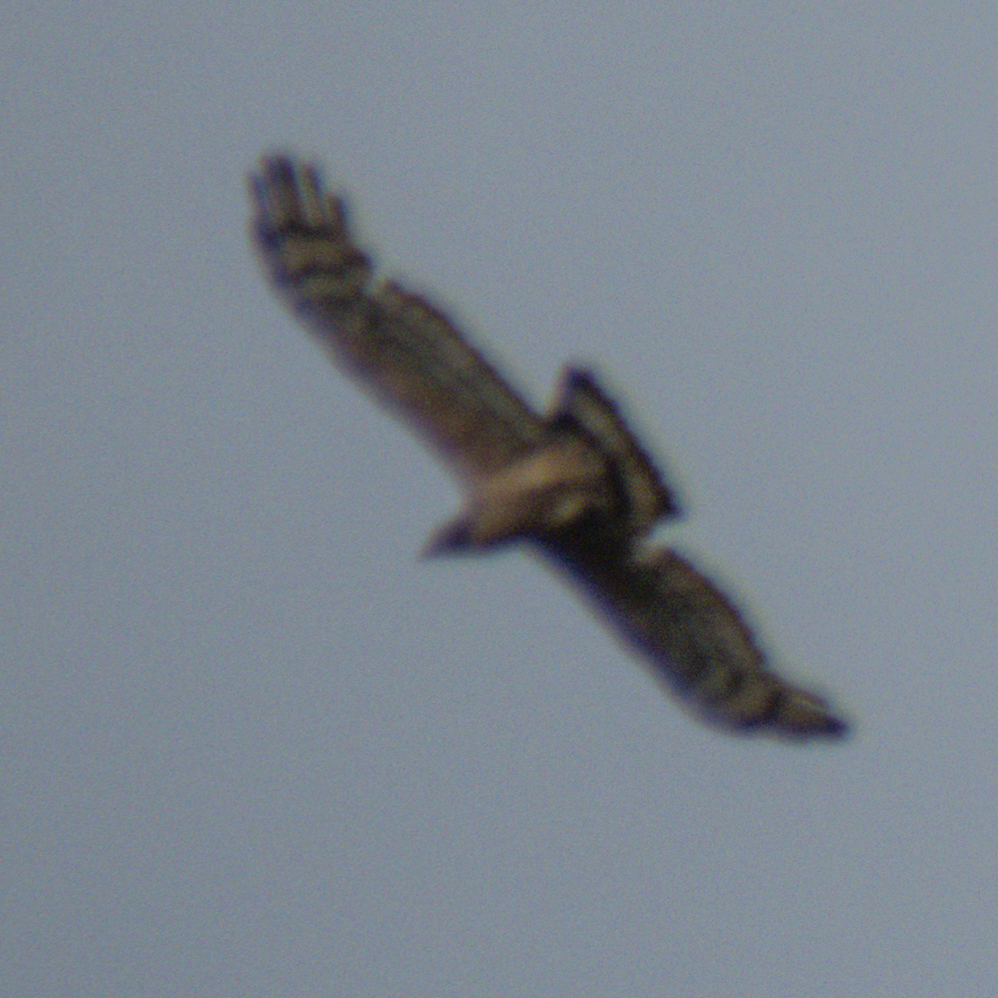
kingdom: Animalia
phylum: Chordata
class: Aves
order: Accipitriformes
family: Accipitridae
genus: Pernis
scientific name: Pernis ptilorhynchus
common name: Crested honey buzzard
